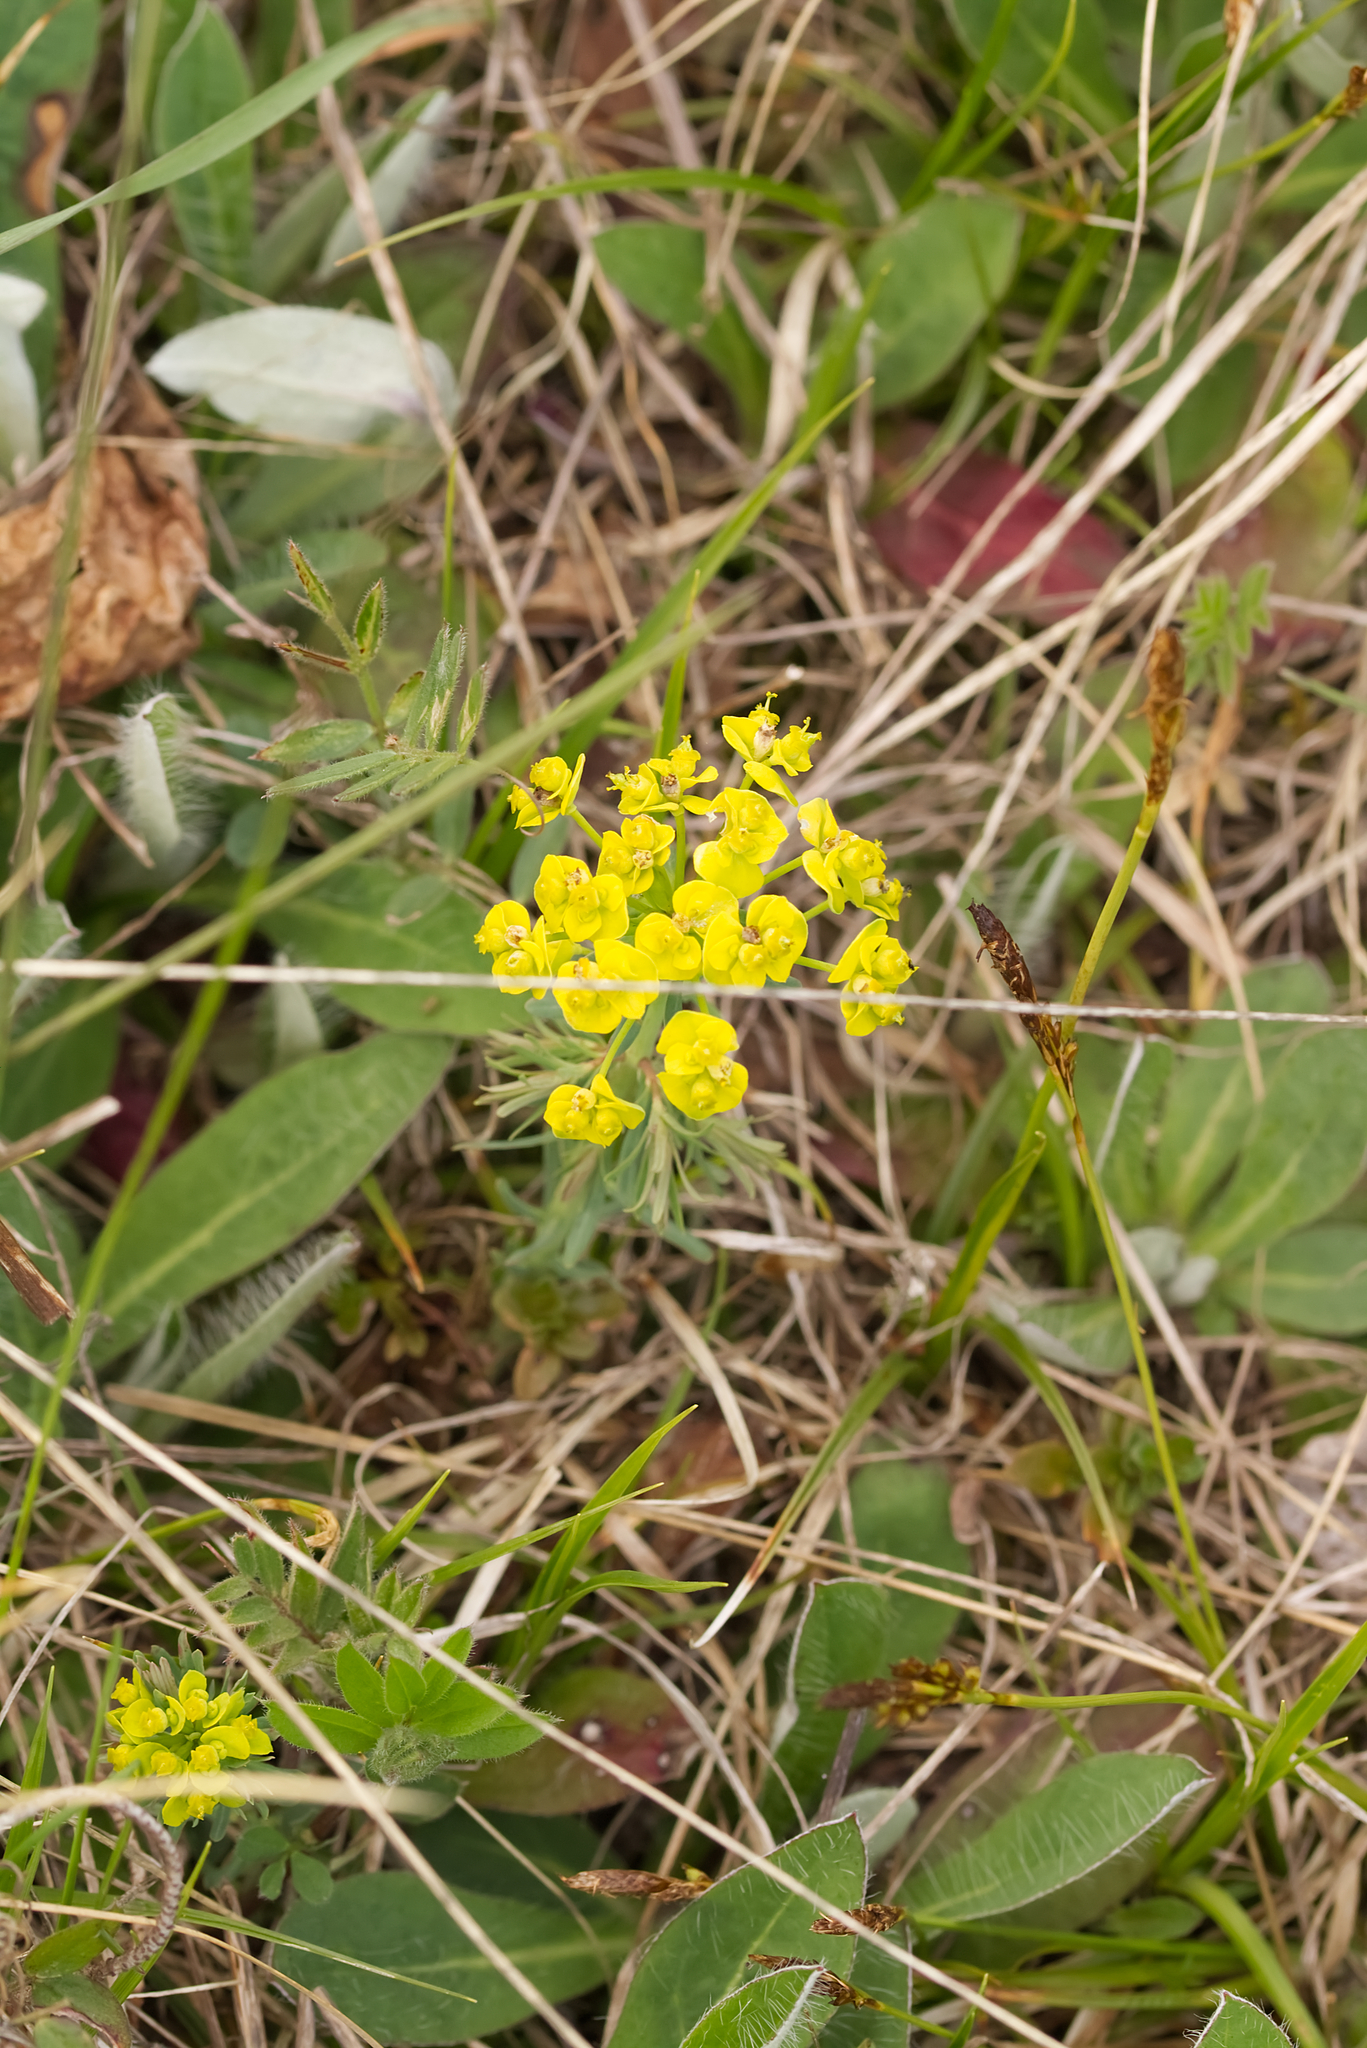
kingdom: Plantae
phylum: Tracheophyta
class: Magnoliopsida
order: Malpighiales
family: Euphorbiaceae
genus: Euphorbia
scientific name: Euphorbia cyparissias
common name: Cypress spurge
